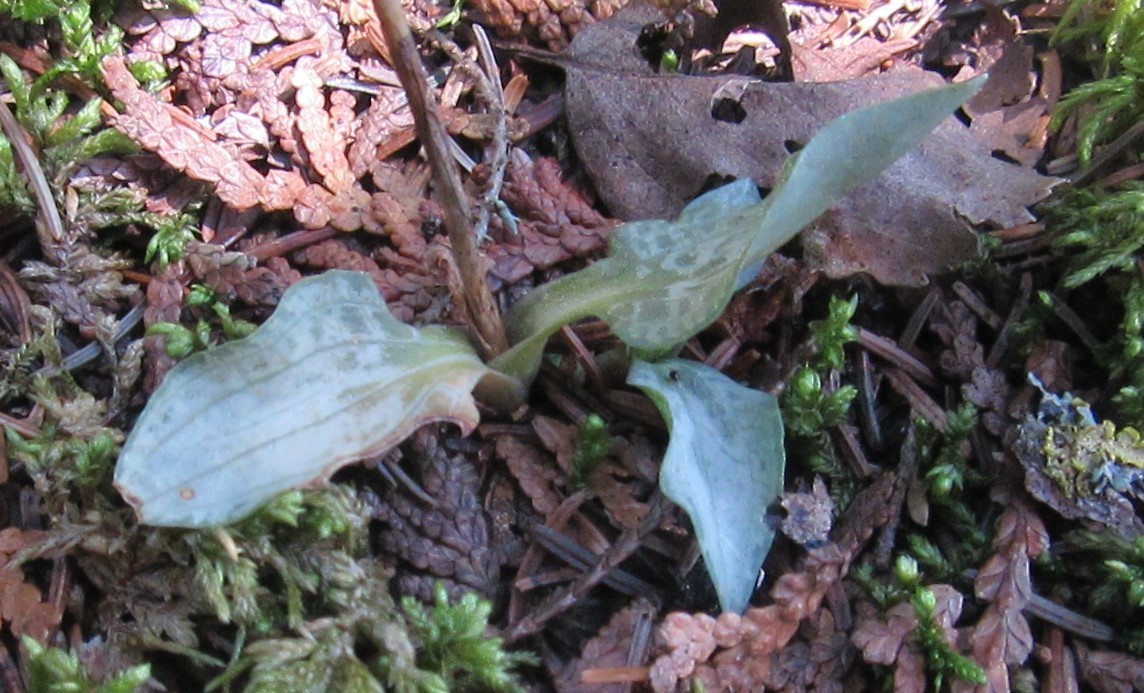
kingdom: Plantae
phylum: Tracheophyta
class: Liliopsida
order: Asparagales
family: Orchidaceae
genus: Goodyera
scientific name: Goodyera tesselata
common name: Checkered rattlesnake-plantain
